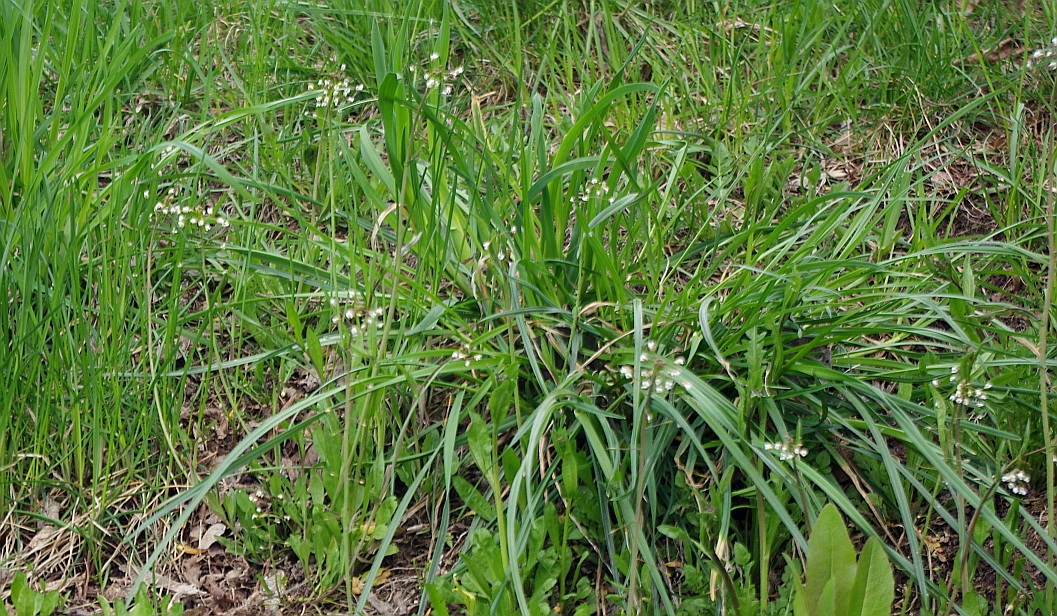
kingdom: Plantae
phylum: Tracheophyta
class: Magnoliopsida
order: Brassicales
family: Brassicaceae
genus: Capsella
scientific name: Capsella bursa-pastoris
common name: Shepherd's purse
